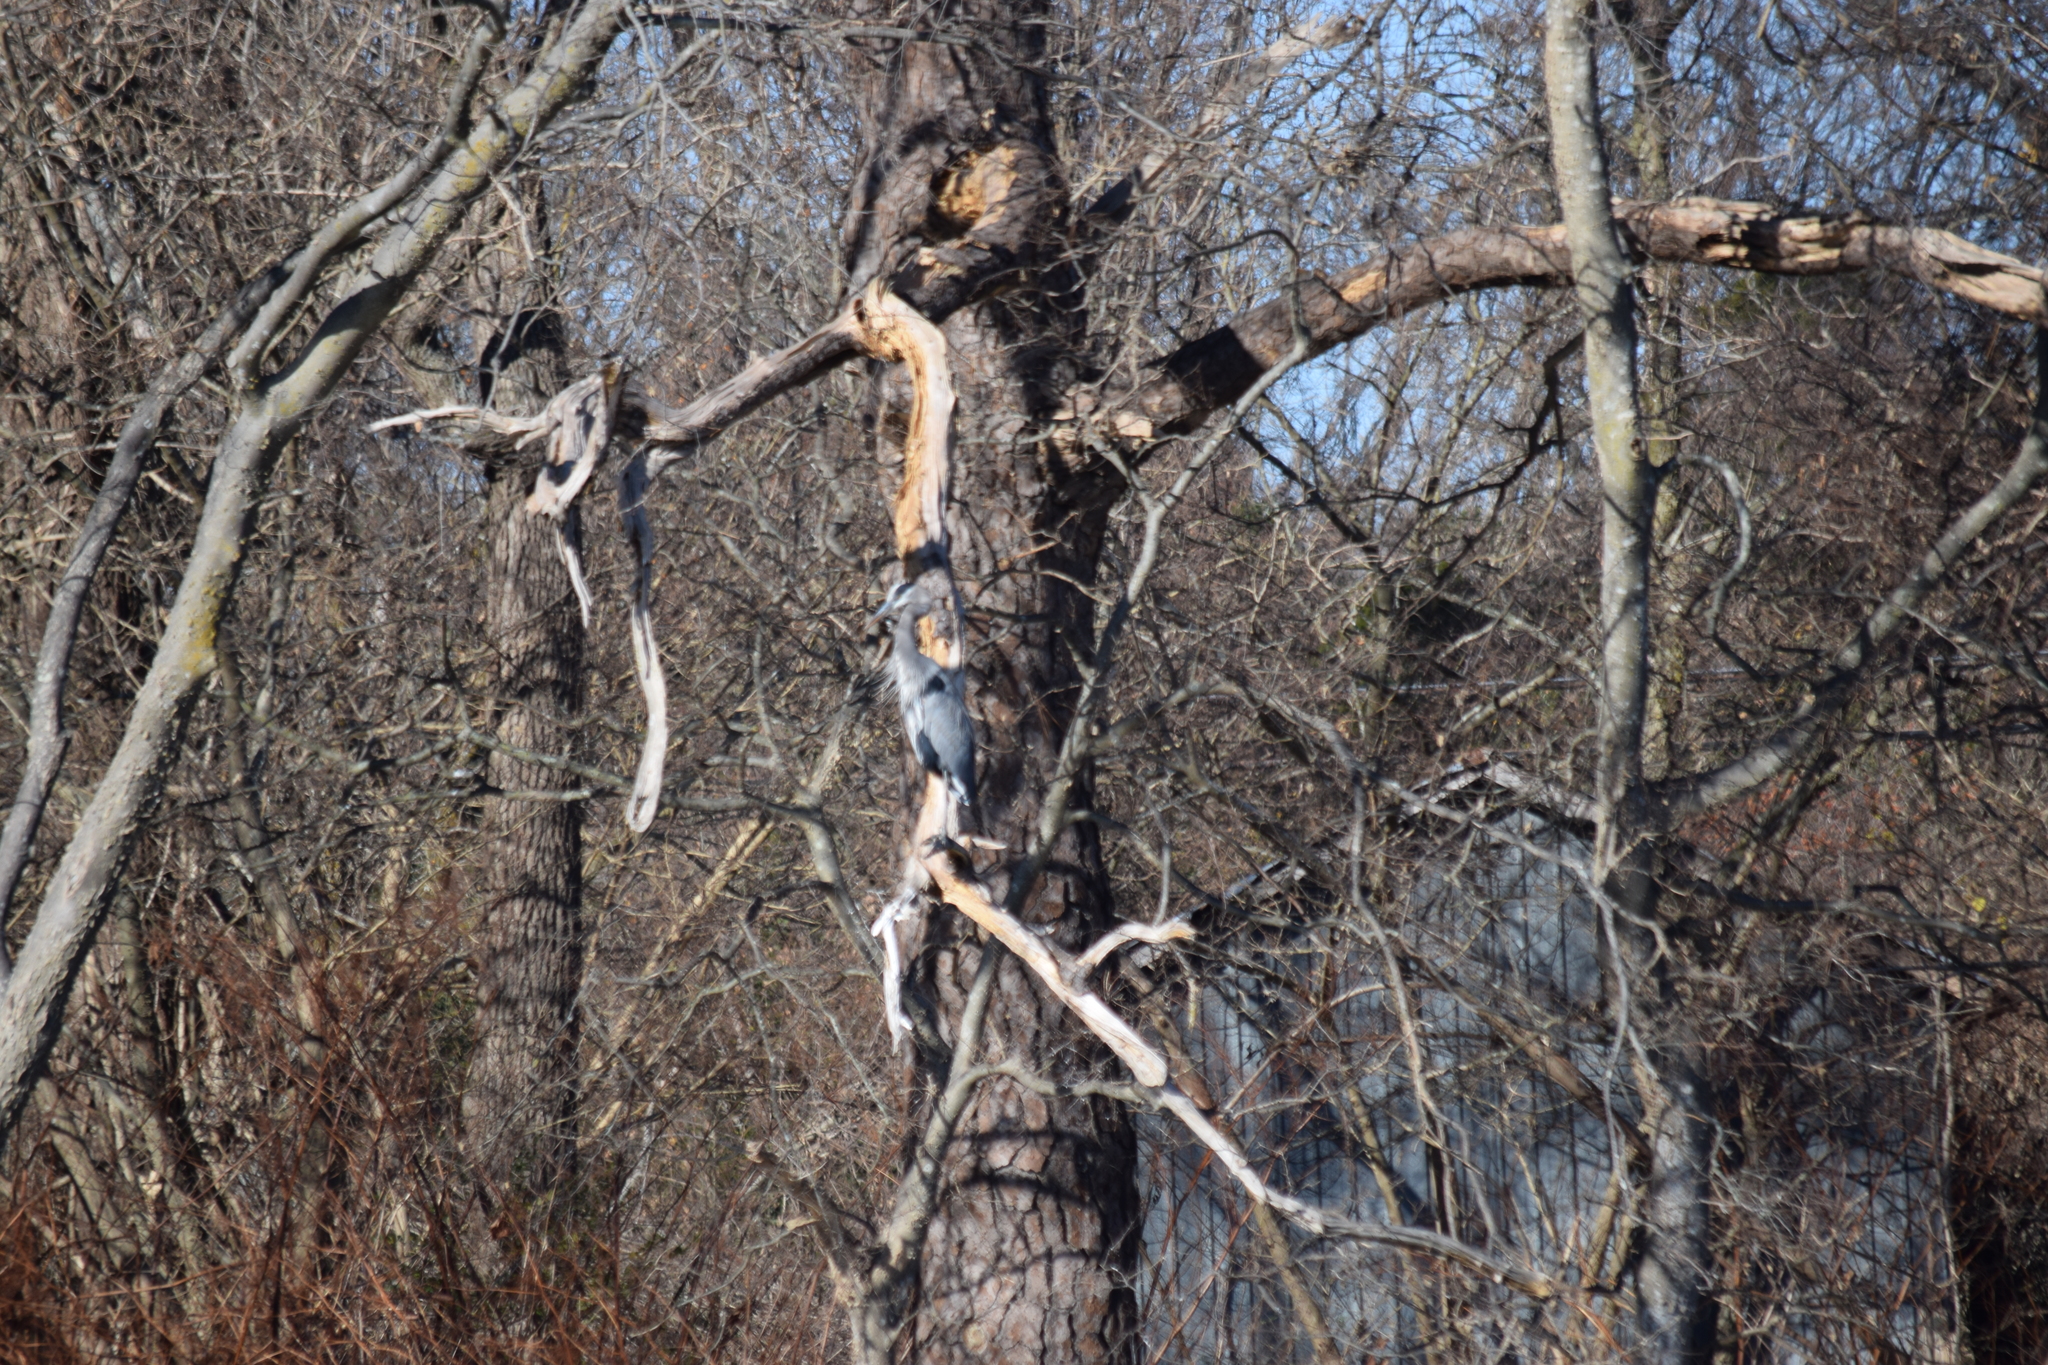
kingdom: Animalia
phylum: Chordata
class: Aves
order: Pelecaniformes
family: Ardeidae
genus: Ardea
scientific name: Ardea herodias
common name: Great blue heron
